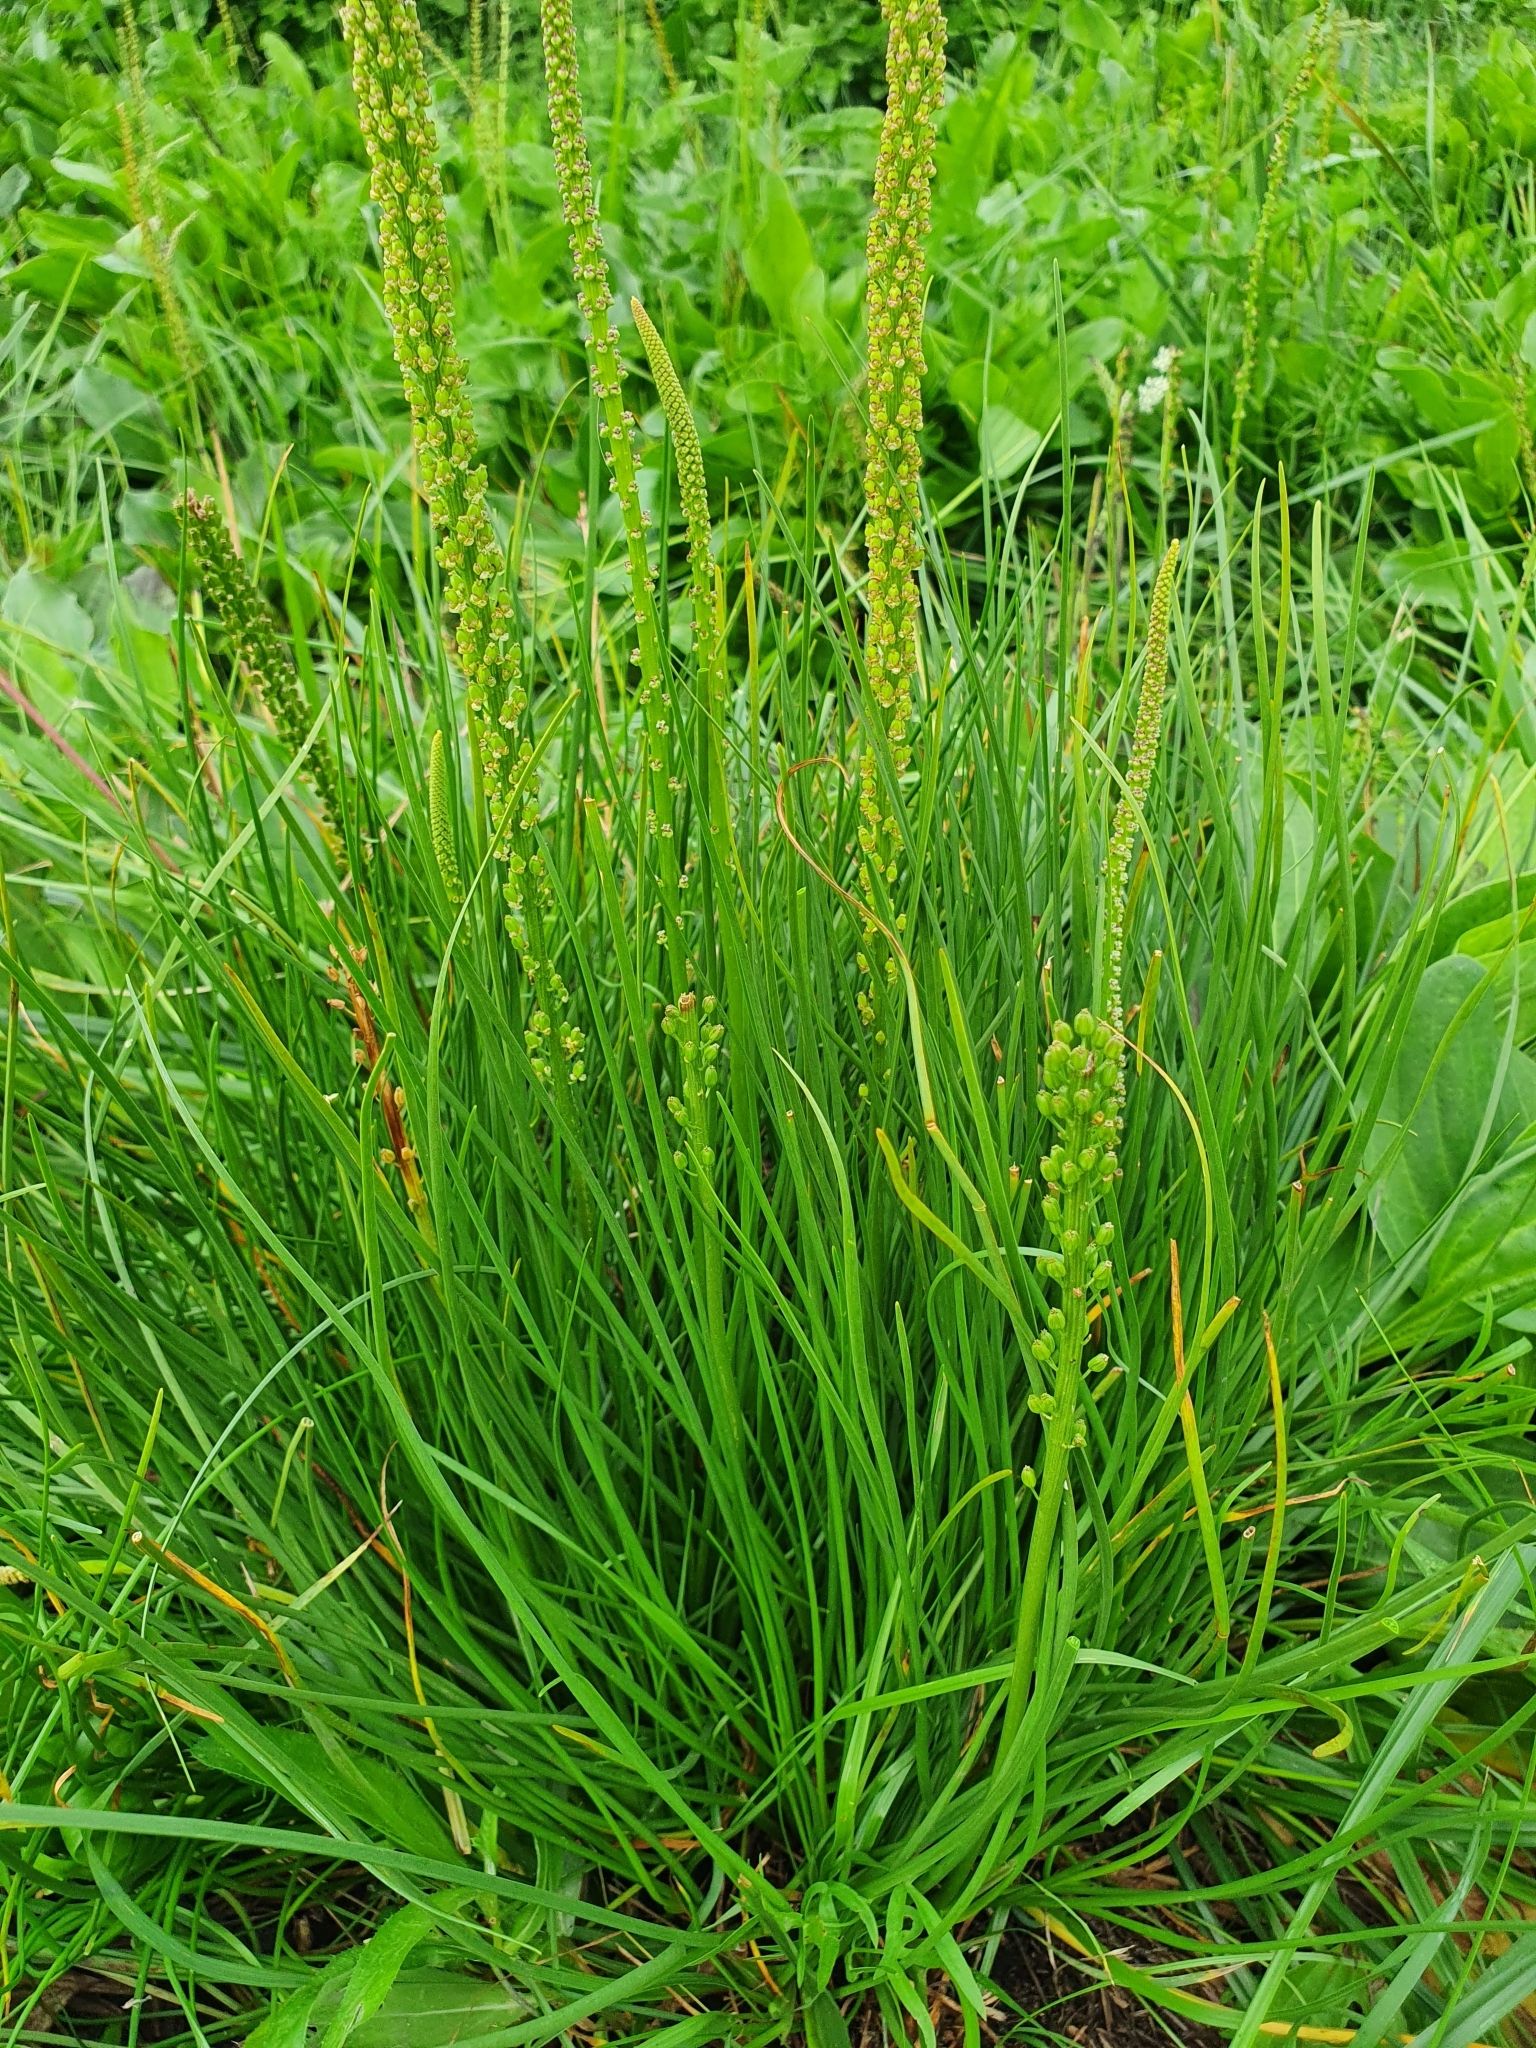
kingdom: Plantae
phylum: Tracheophyta
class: Liliopsida
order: Alismatales
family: Juncaginaceae
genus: Triglochin
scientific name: Triglochin maritima
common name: Sea arrowgrass
